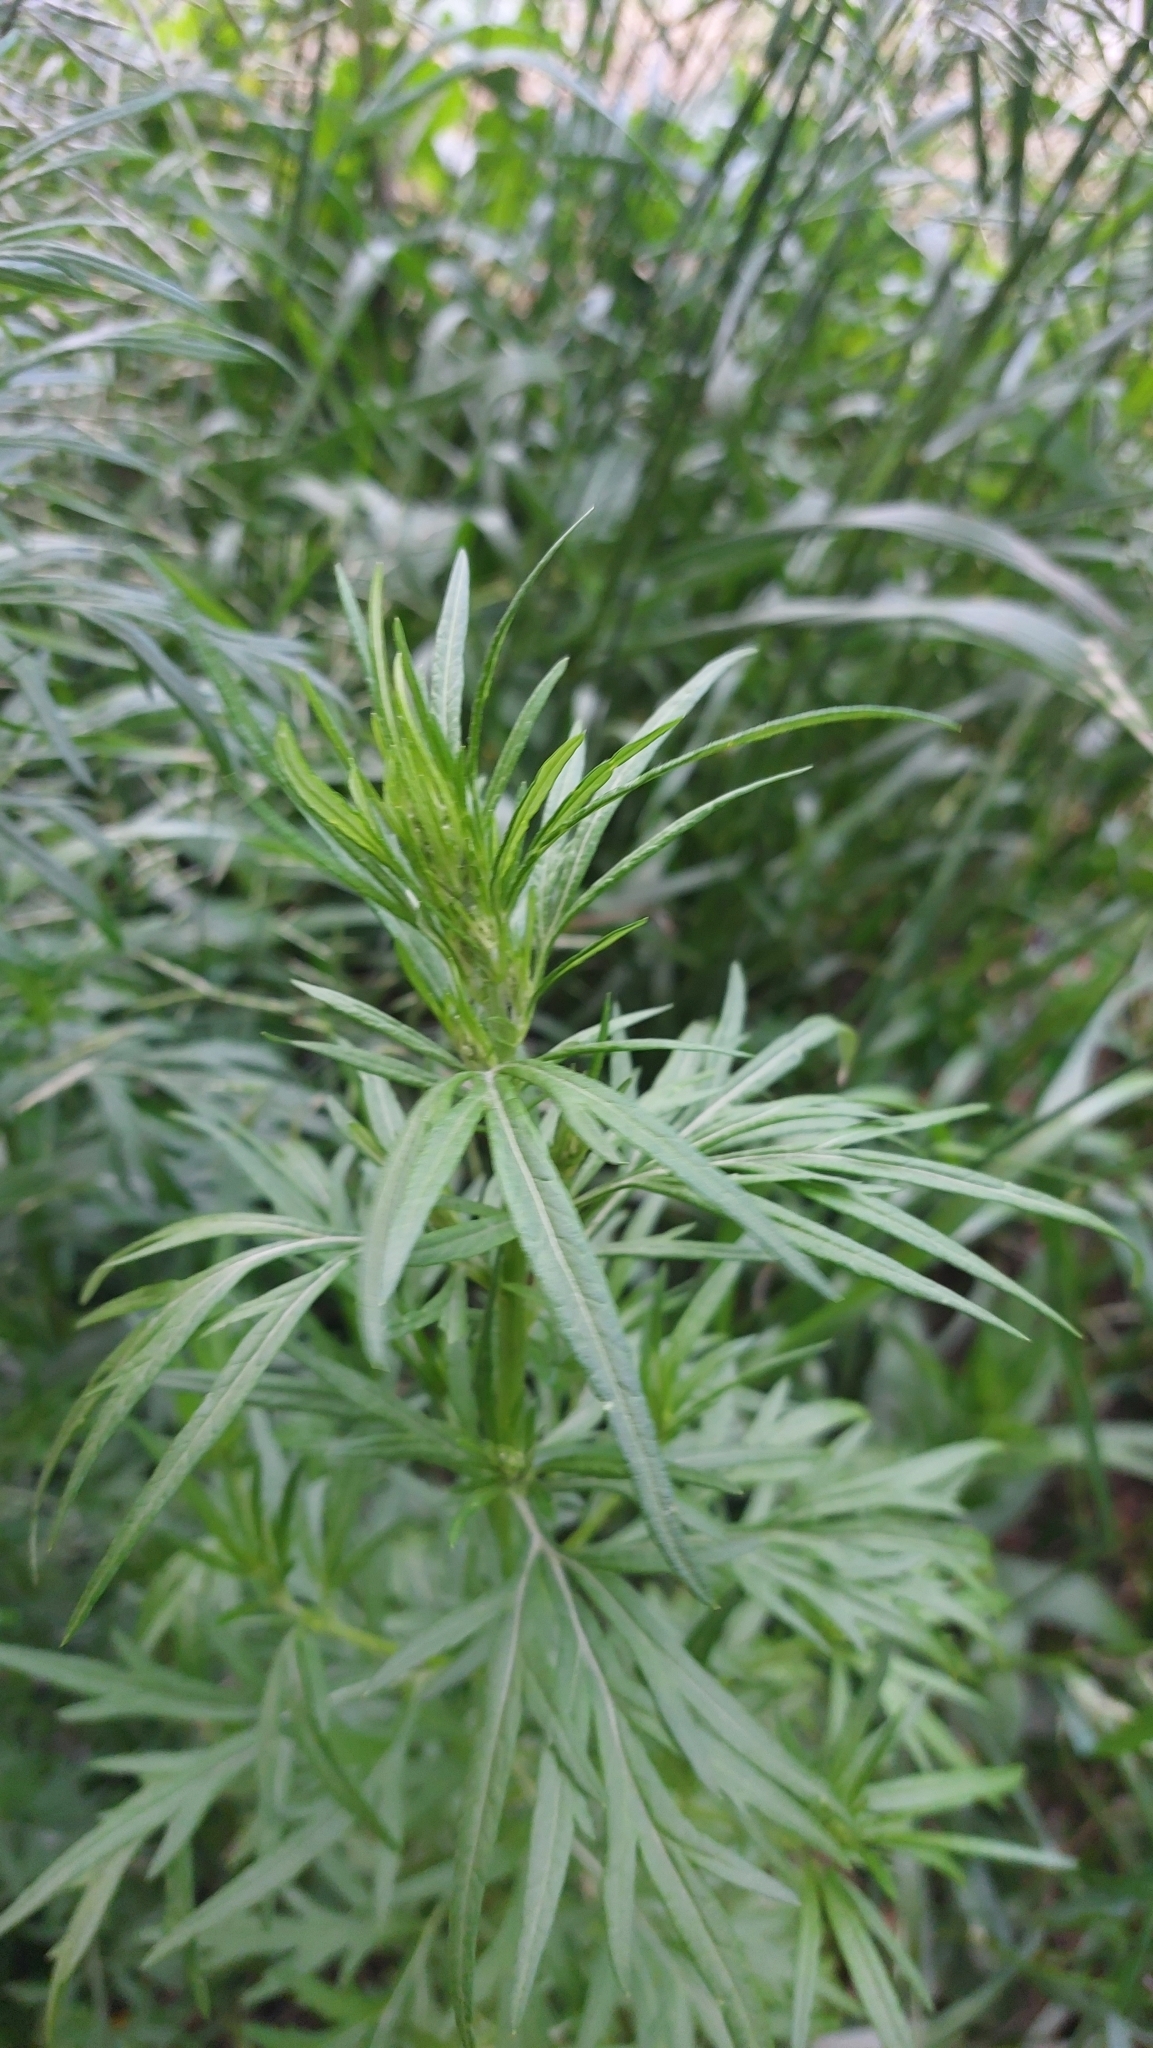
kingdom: Plantae
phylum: Tracheophyta
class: Magnoliopsida
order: Asterales
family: Asteraceae
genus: Artemisia
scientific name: Artemisia vulgaris
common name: Mugwort
